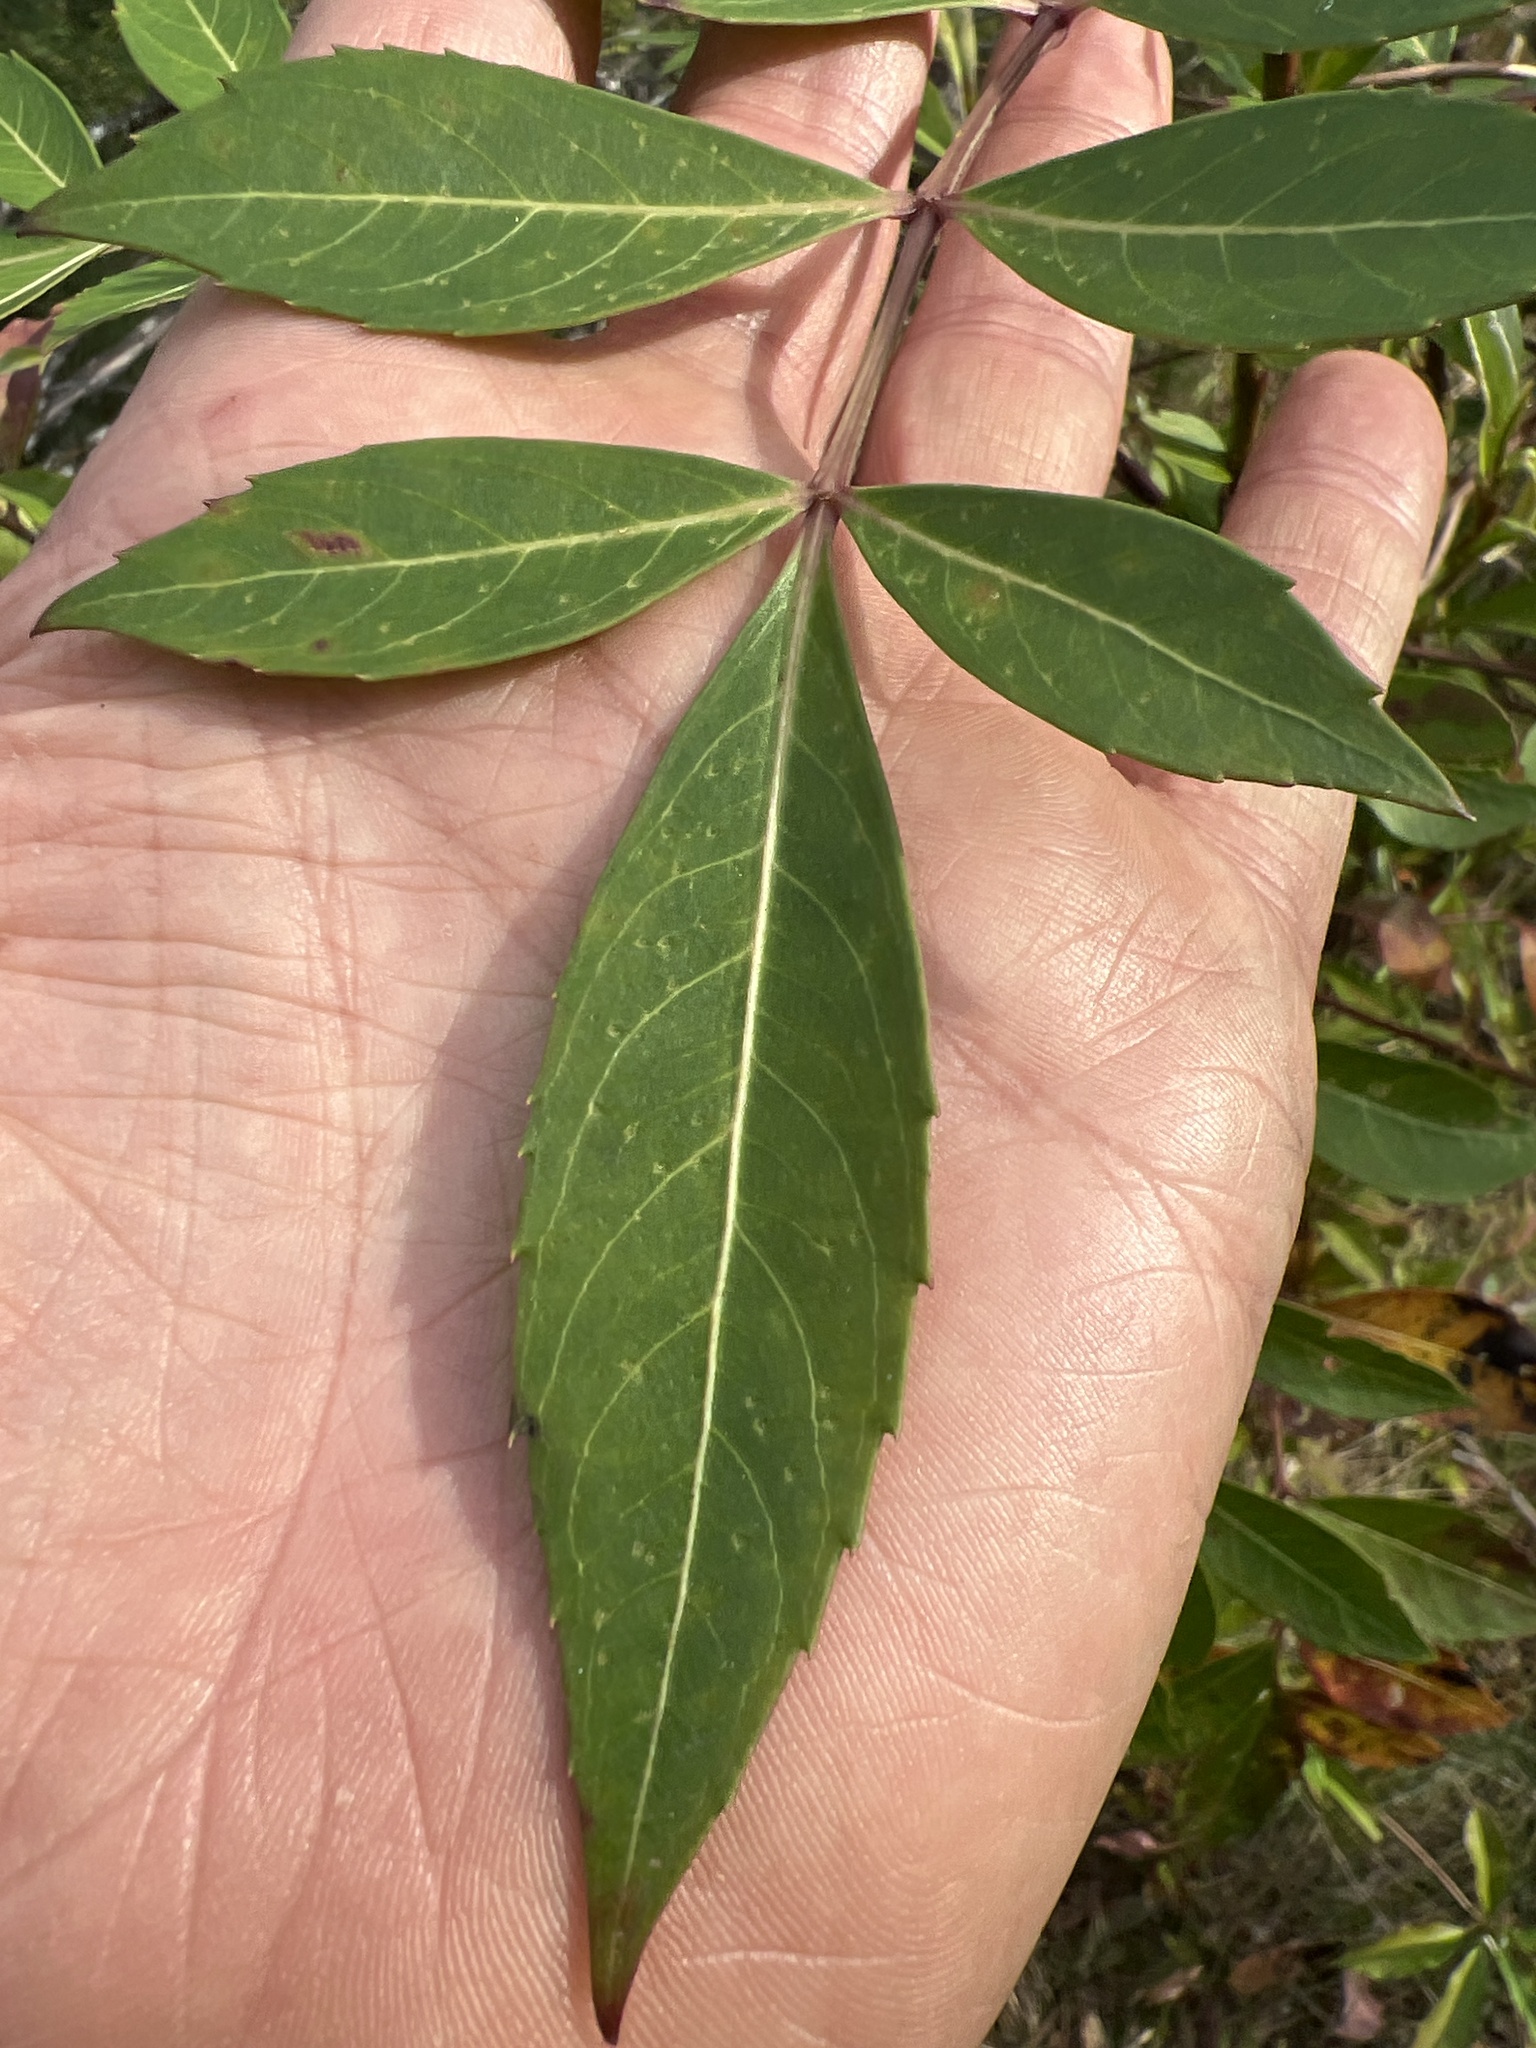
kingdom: Plantae
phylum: Tracheophyta
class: Magnoliopsida
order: Apiales
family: Araliaceae
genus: Polyscias
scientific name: Polyscias sambucifolia
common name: Elderberry-ash
